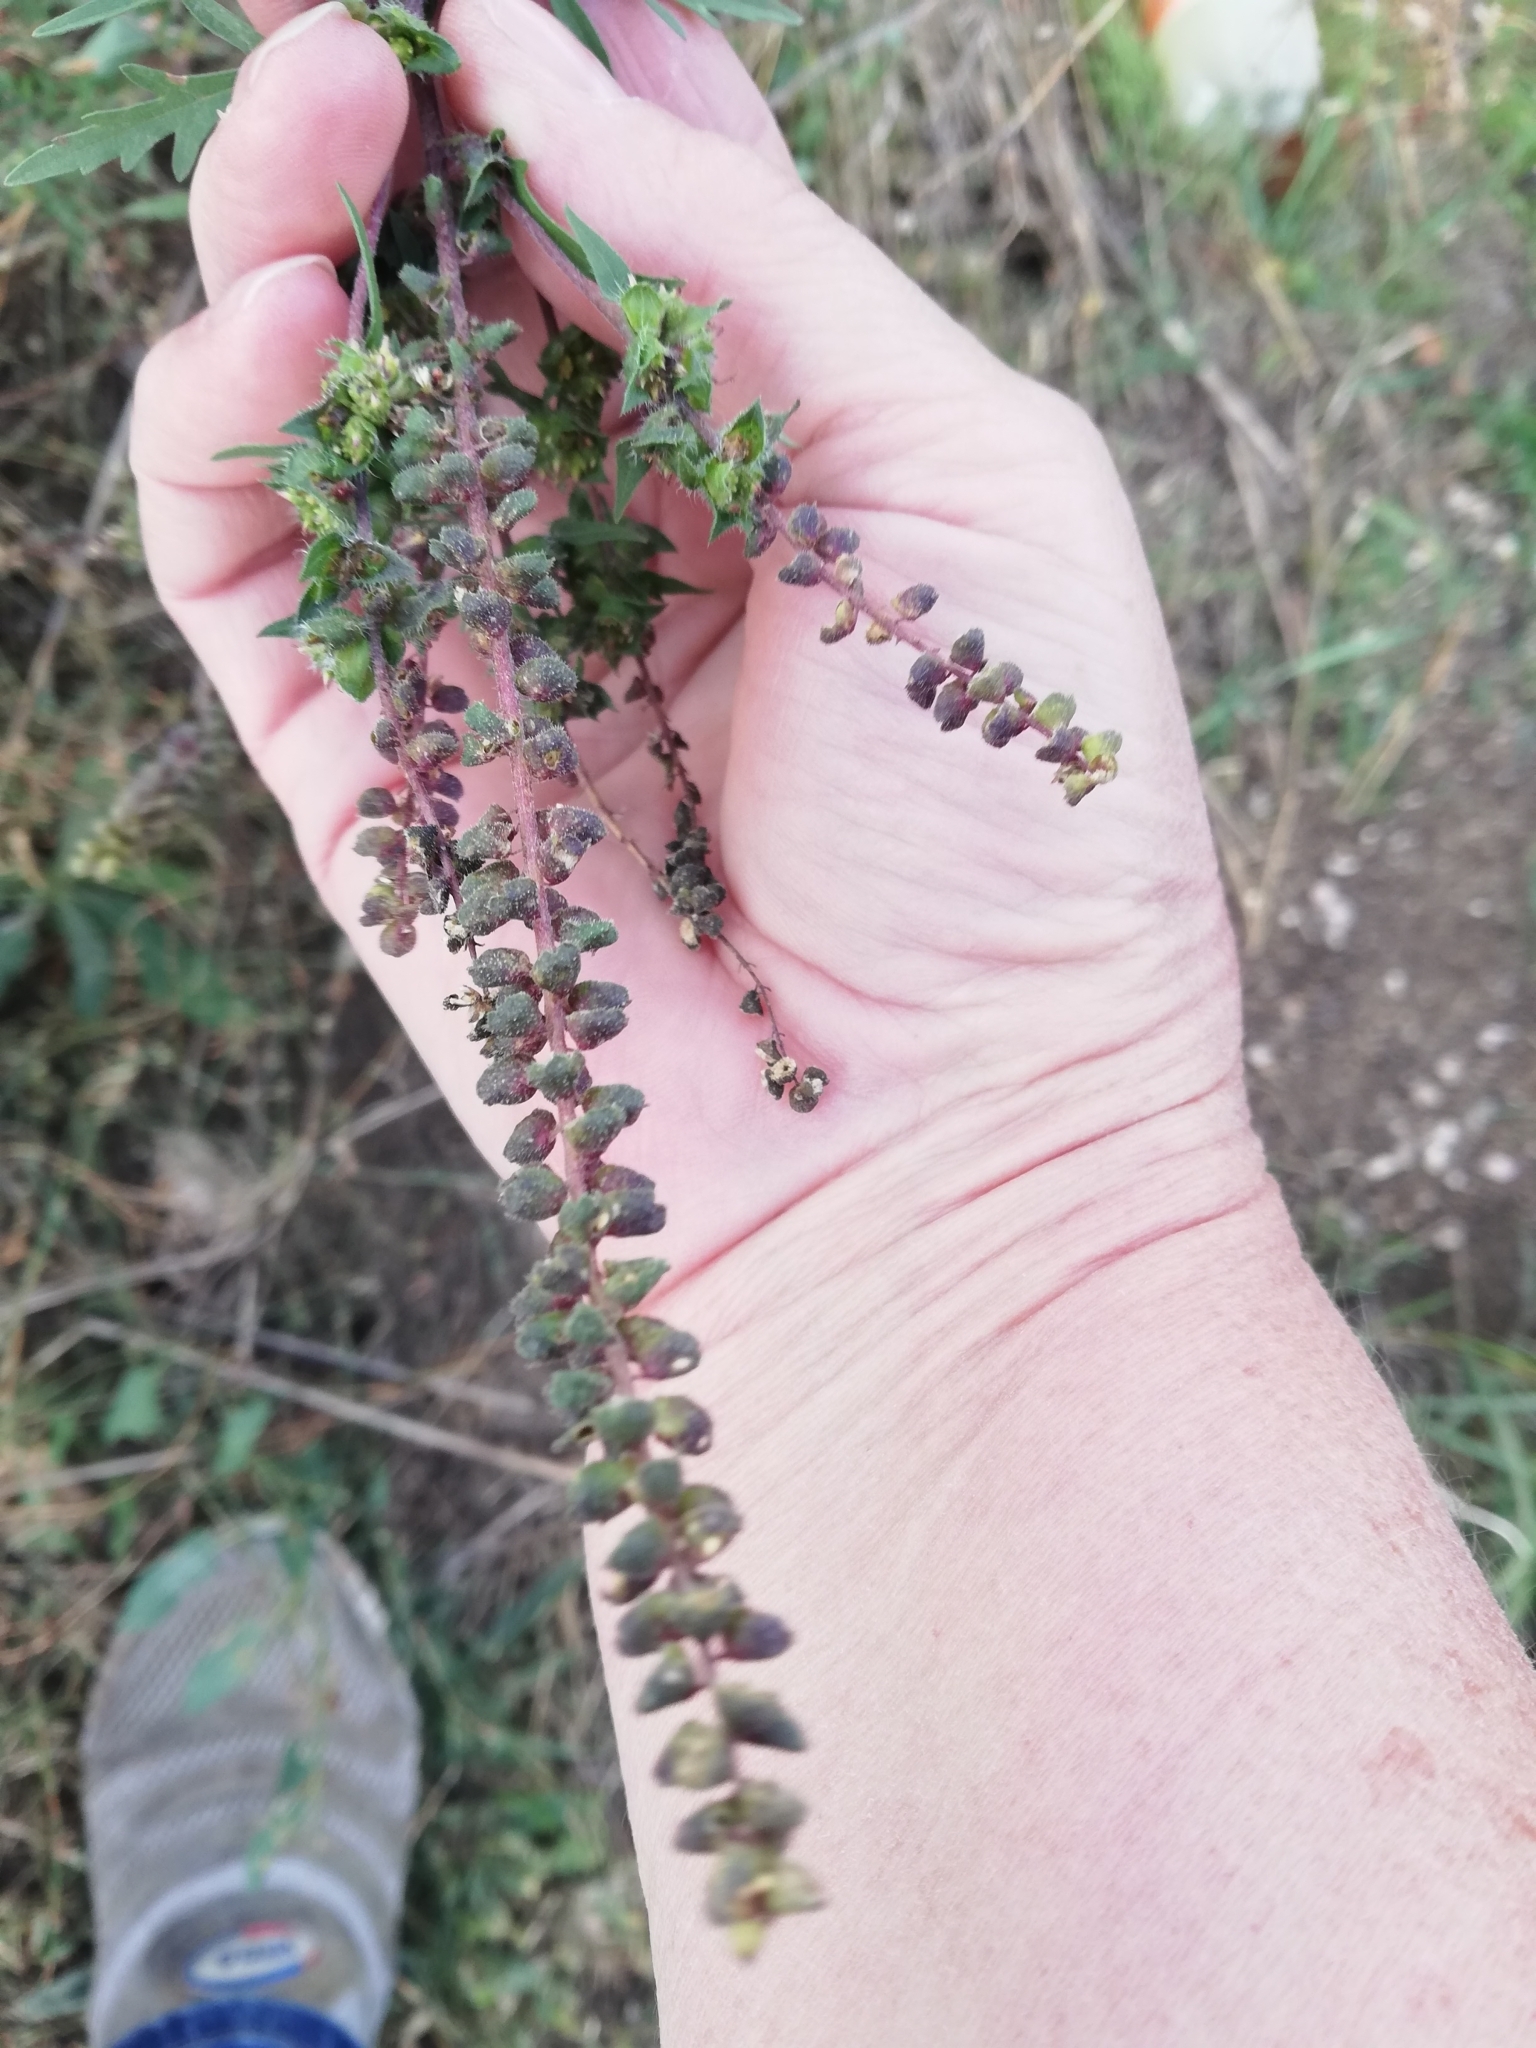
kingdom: Plantae
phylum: Tracheophyta
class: Magnoliopsida
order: Asterales
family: Asteraceae
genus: Ambrosia
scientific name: Ambrosia artemisiifolia
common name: Annual ragweed
